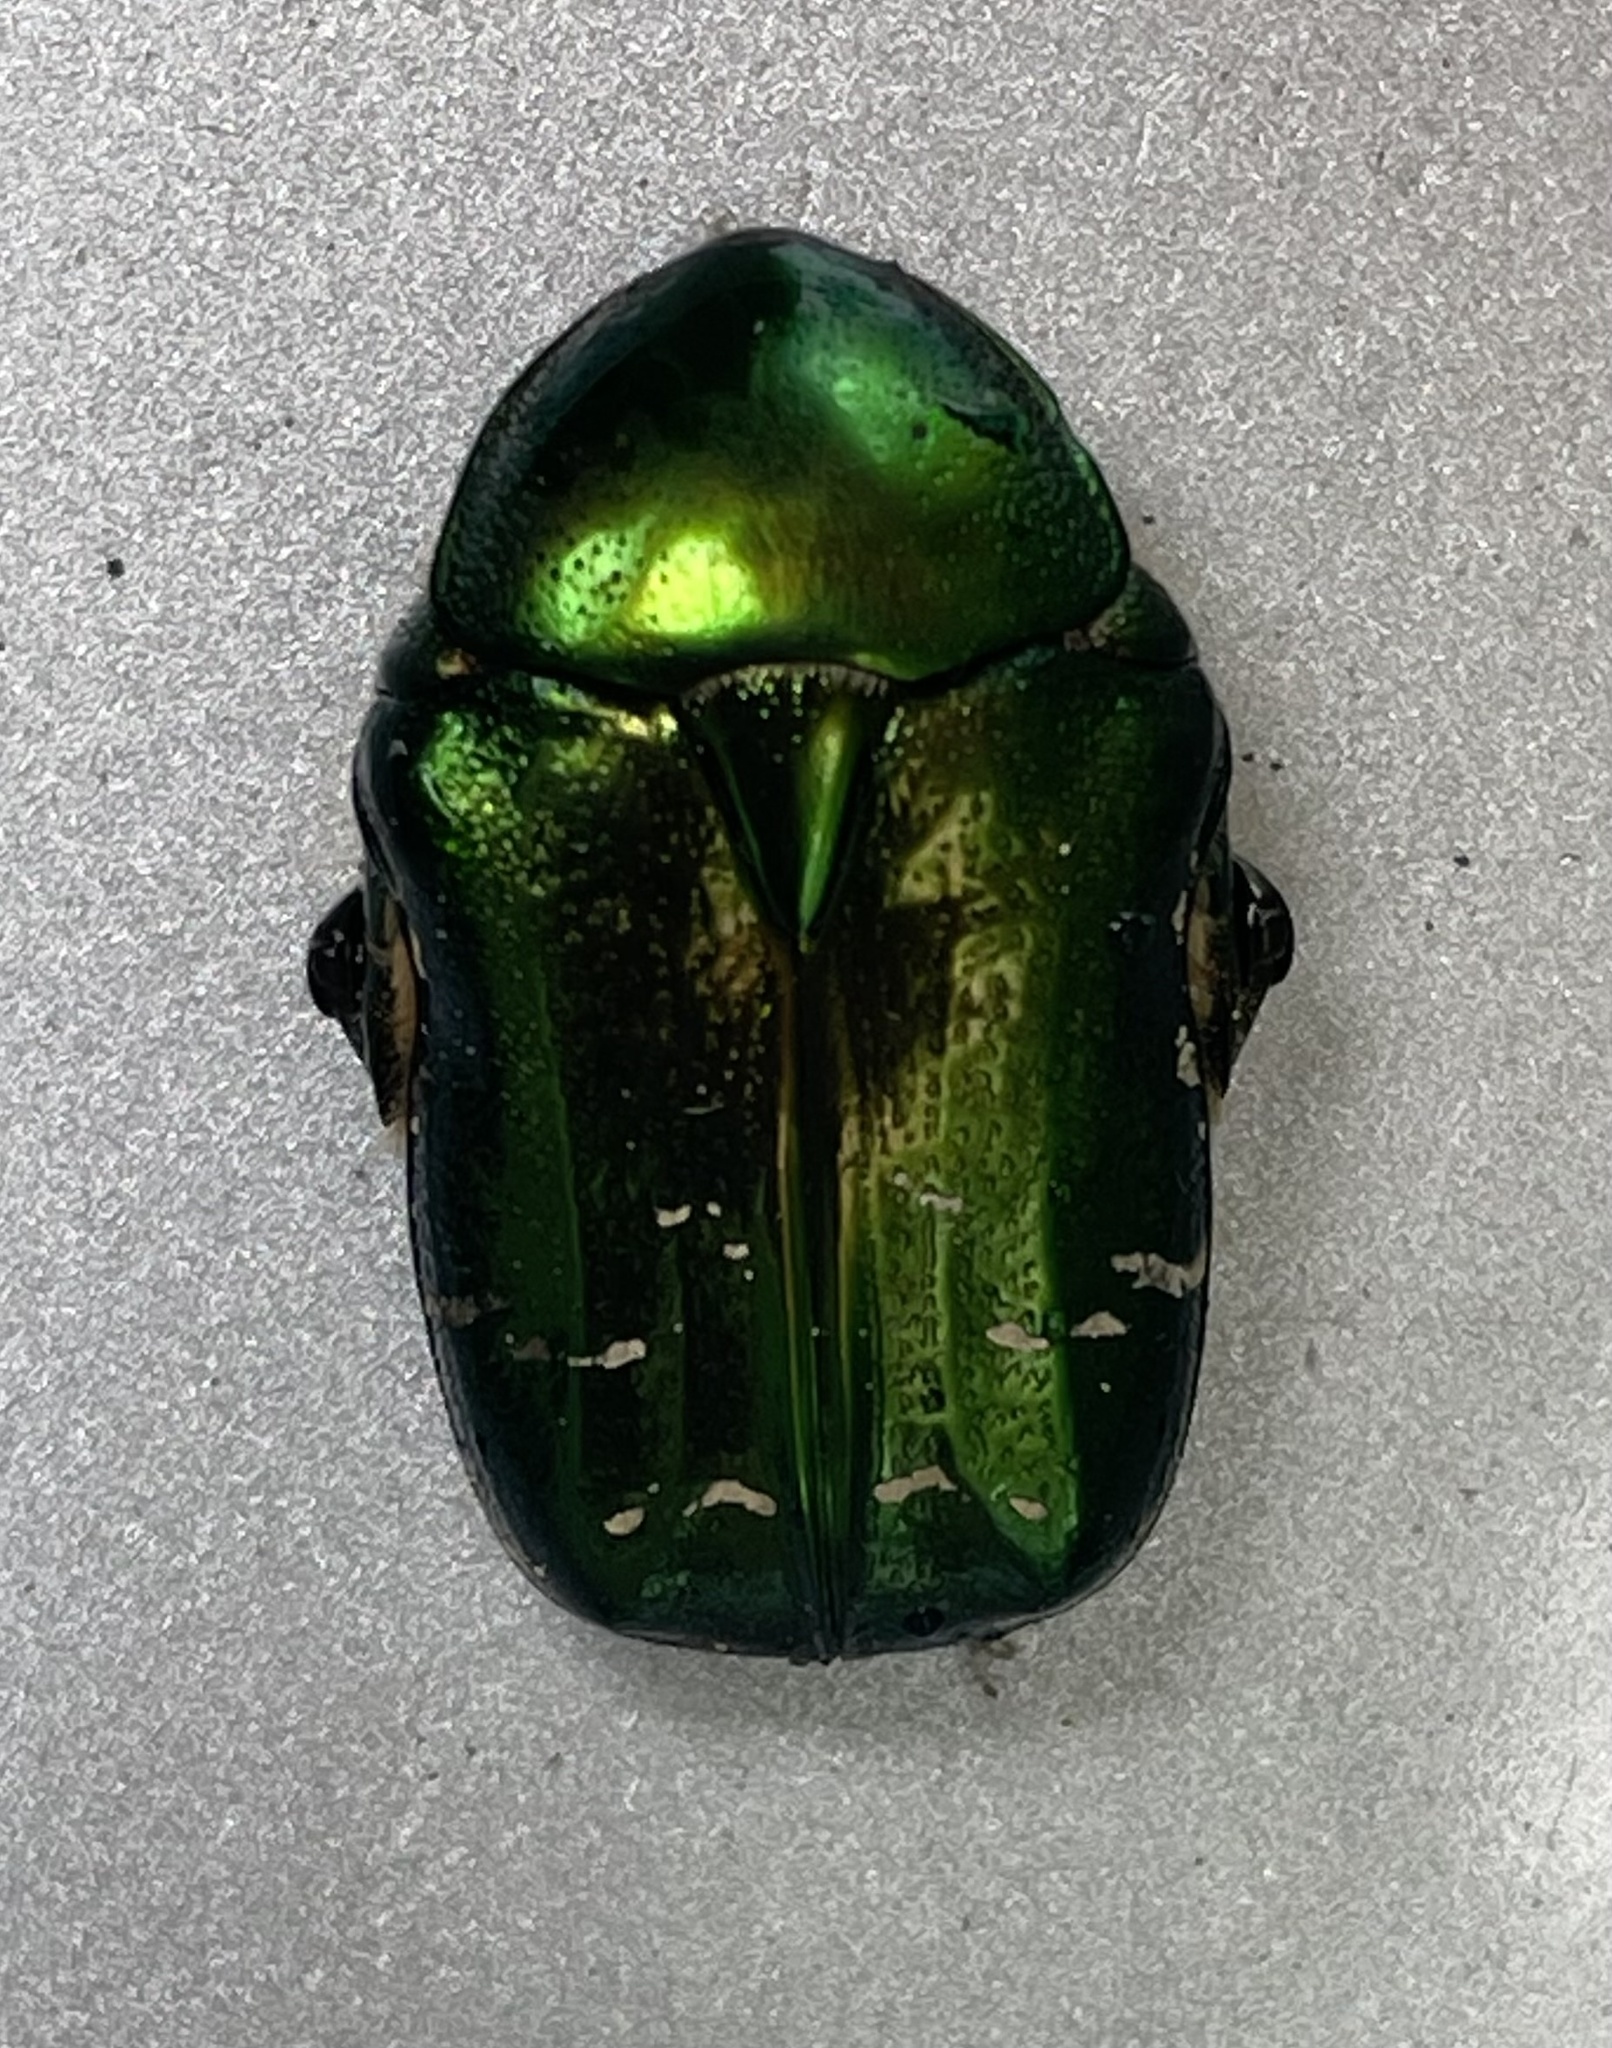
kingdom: Animalia
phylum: Arthropoda
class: Insecta
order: Coleoptera
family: Scarabaeidae
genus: Cetonia
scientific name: Cetonia aurata
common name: Rose chafer
